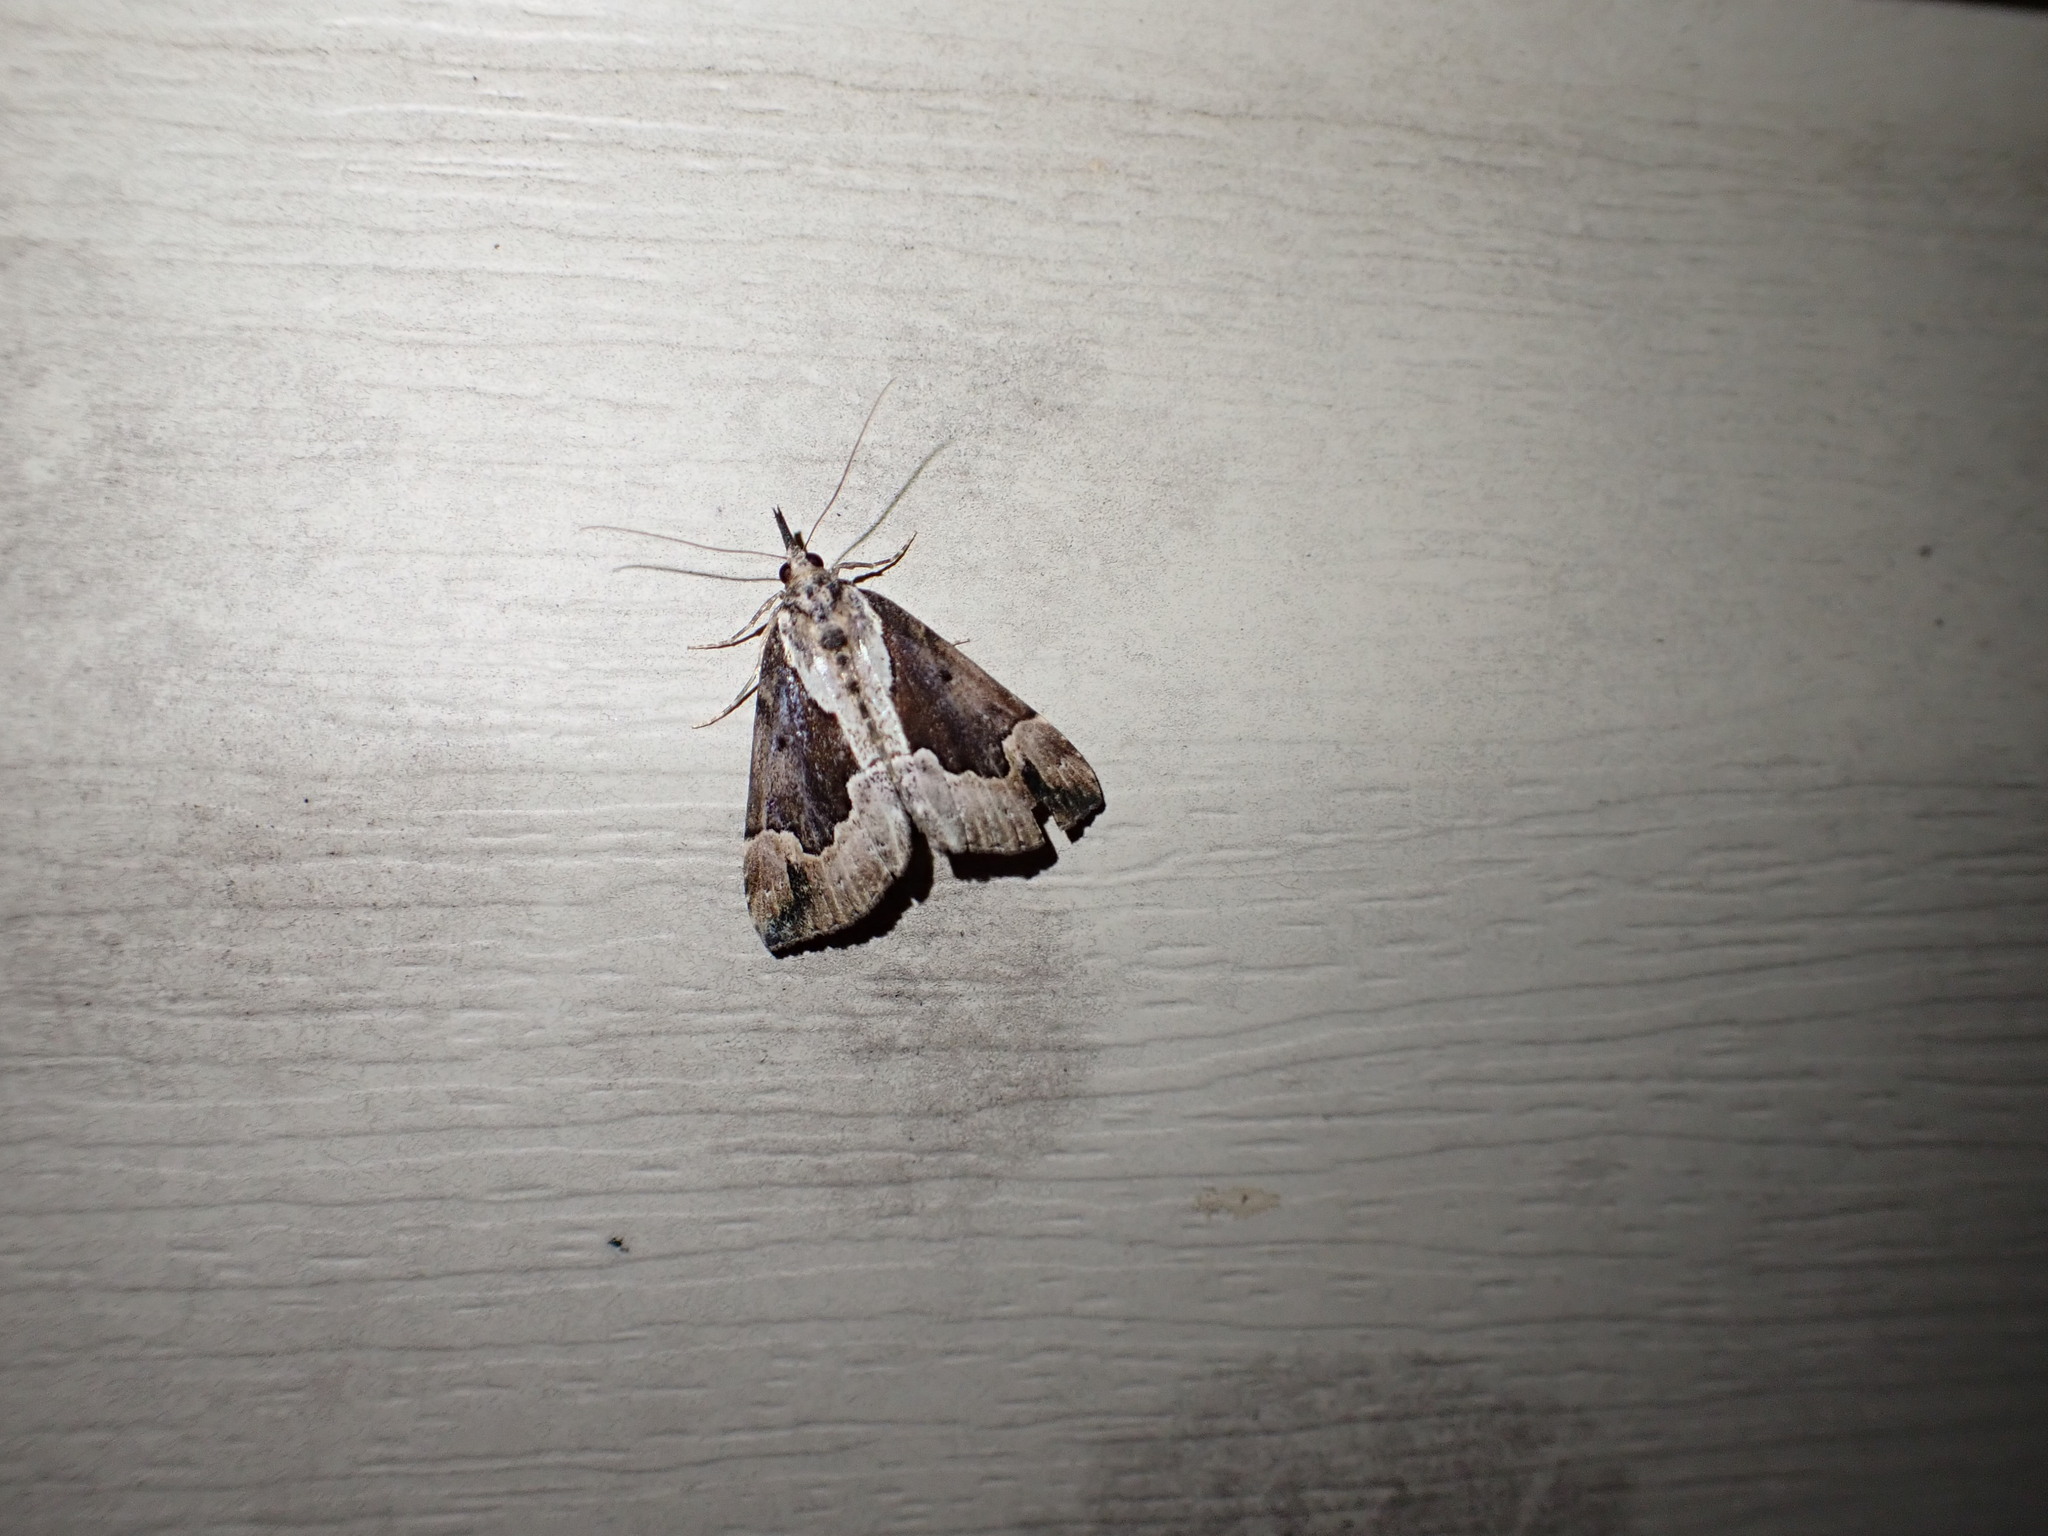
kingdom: Animalia
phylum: Arthropoda
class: Insecta
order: Lepidoptera
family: Erebidae
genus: Hypena
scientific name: Hypena baltimoralis
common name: Baltimore snout
